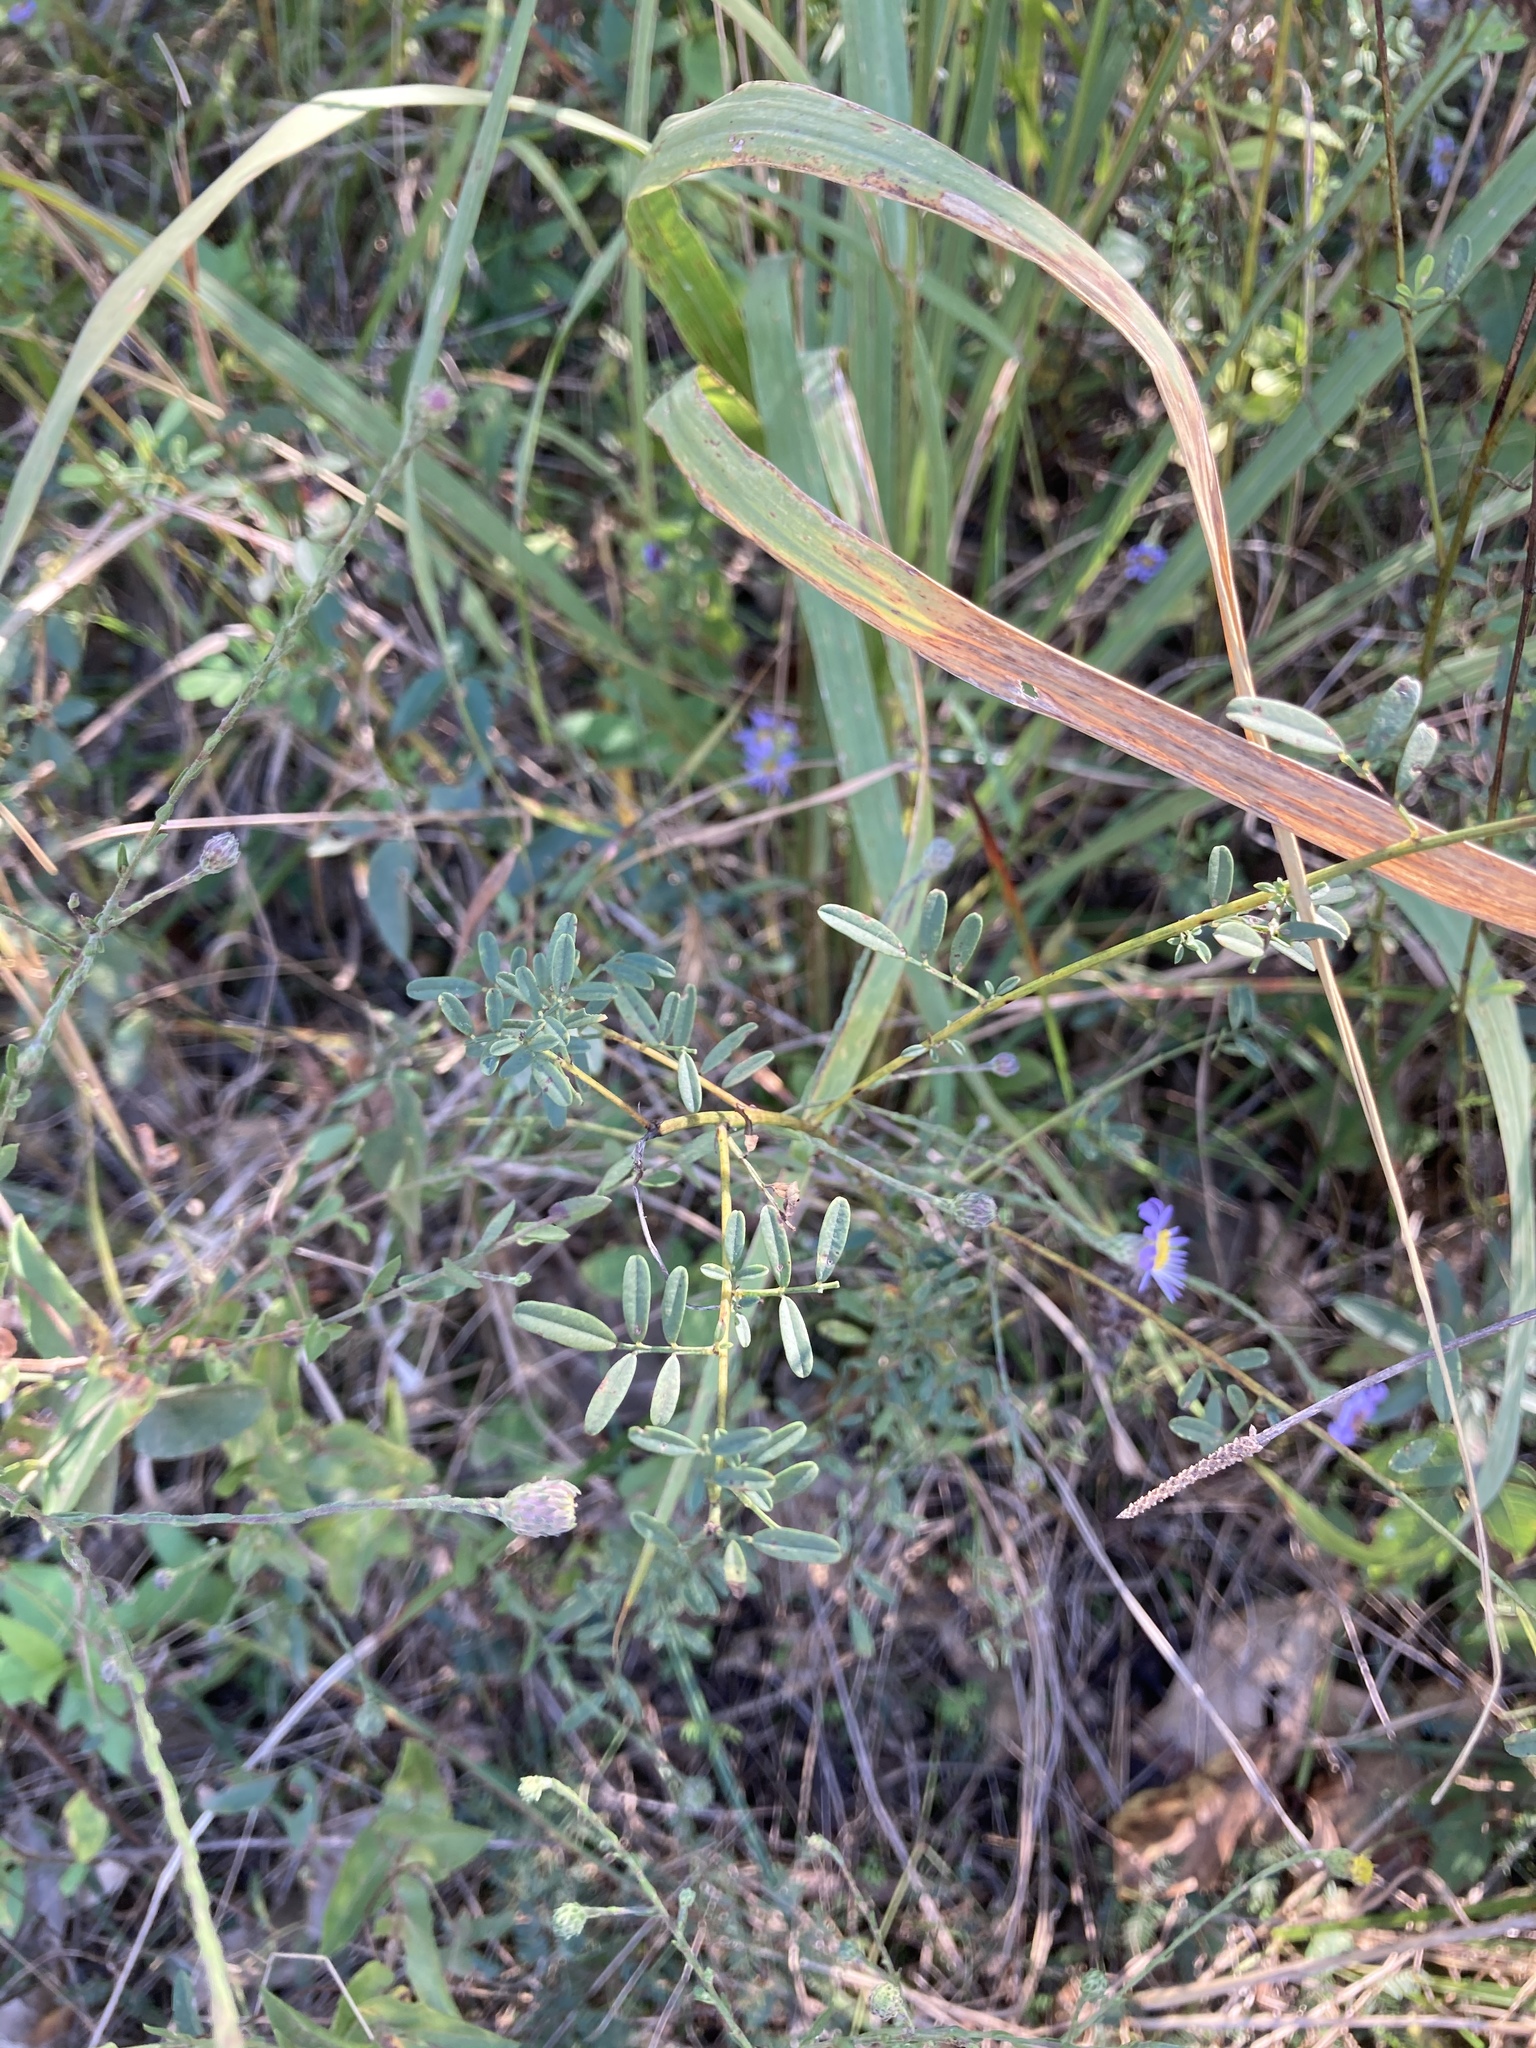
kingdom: Plantae
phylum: Tracheophyta
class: Magnoliopsida
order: Fabales
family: Fabaceae
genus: Dalea
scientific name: Dalea candida
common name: White prairie-clover
